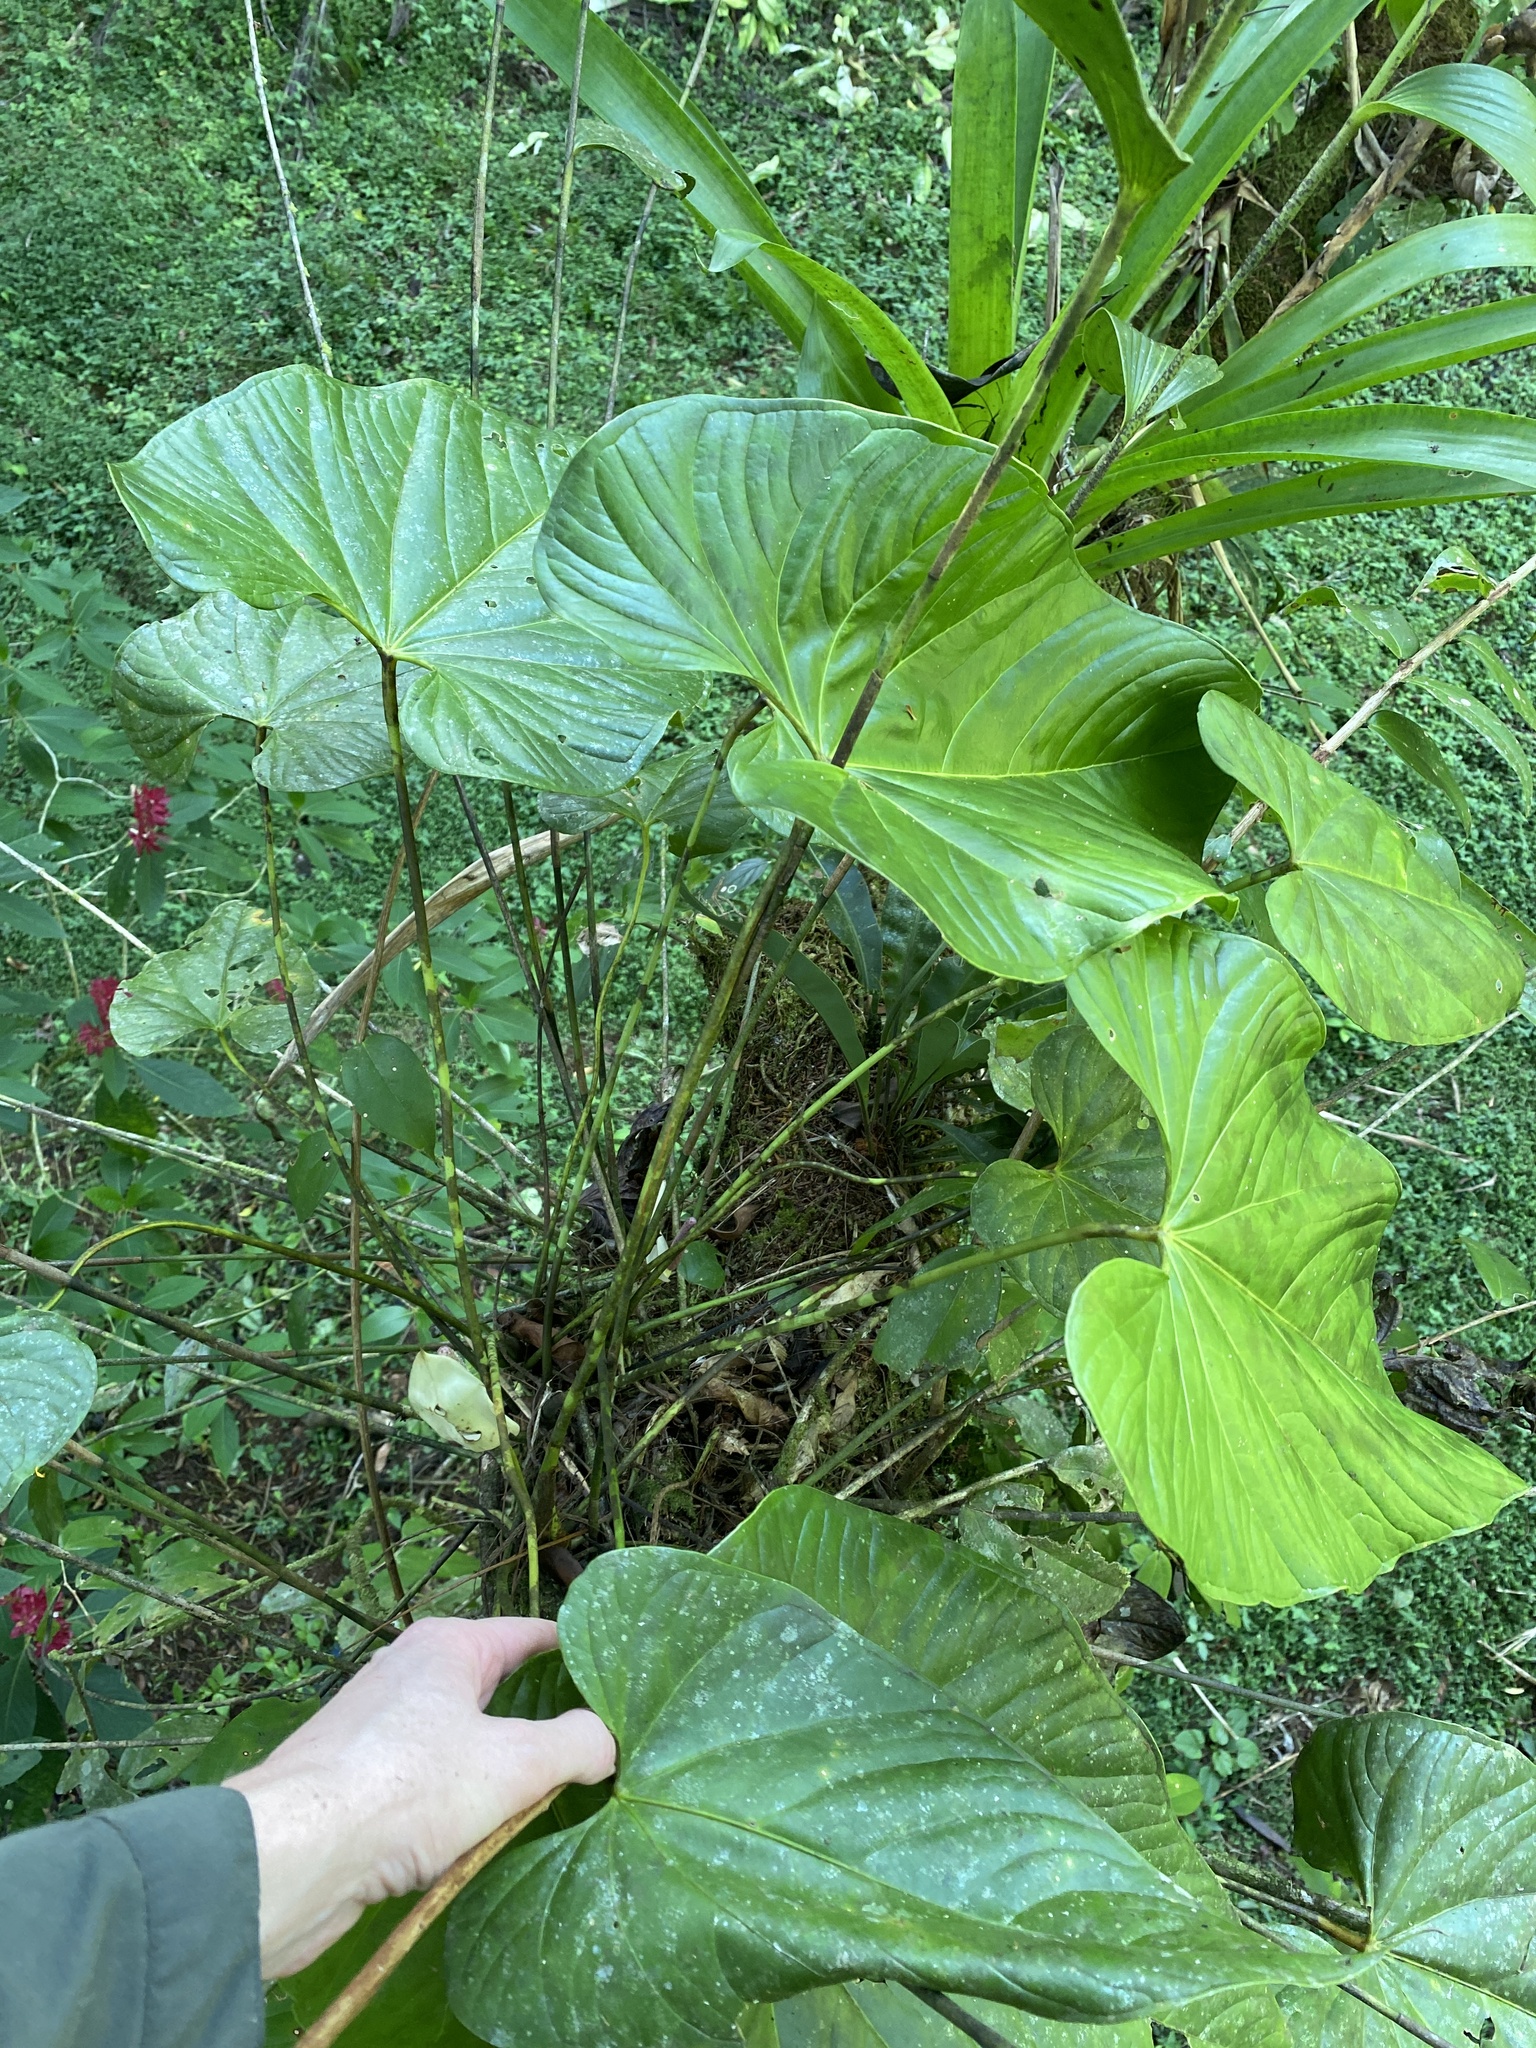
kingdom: Plantae
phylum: Tracheophyta
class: Liliopsida
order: Alismatales
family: Araceae
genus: Anthurium
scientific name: Anthurium formosum
